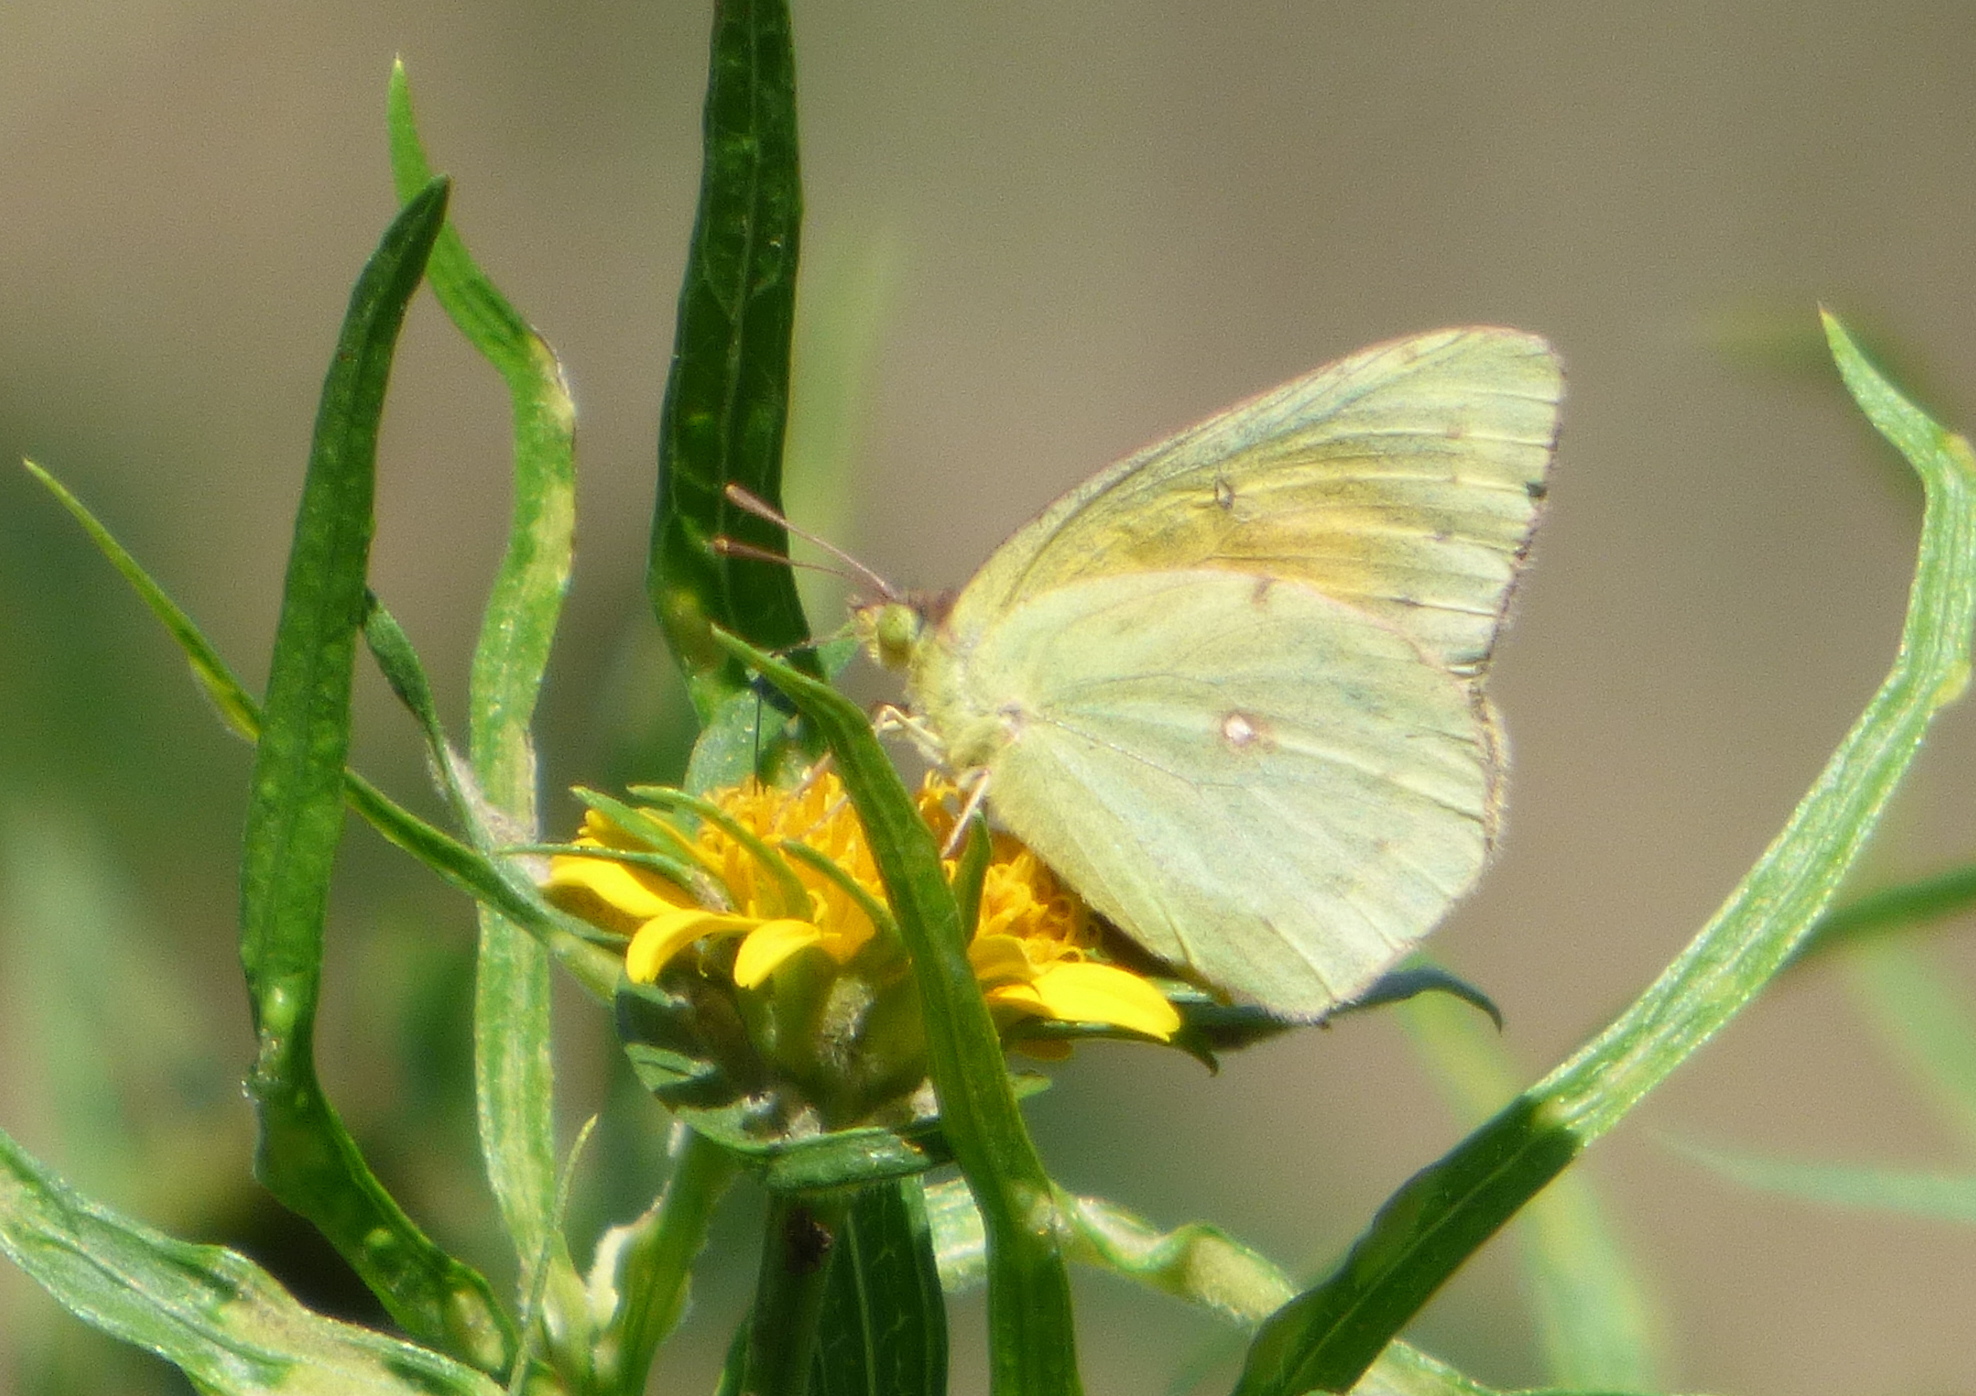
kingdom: Animalia
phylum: Arthropoda
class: Insecta
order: Lepidoptera
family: Pieridae
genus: Colias
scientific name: Colias lesbia
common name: Lesbia clouded yellow
